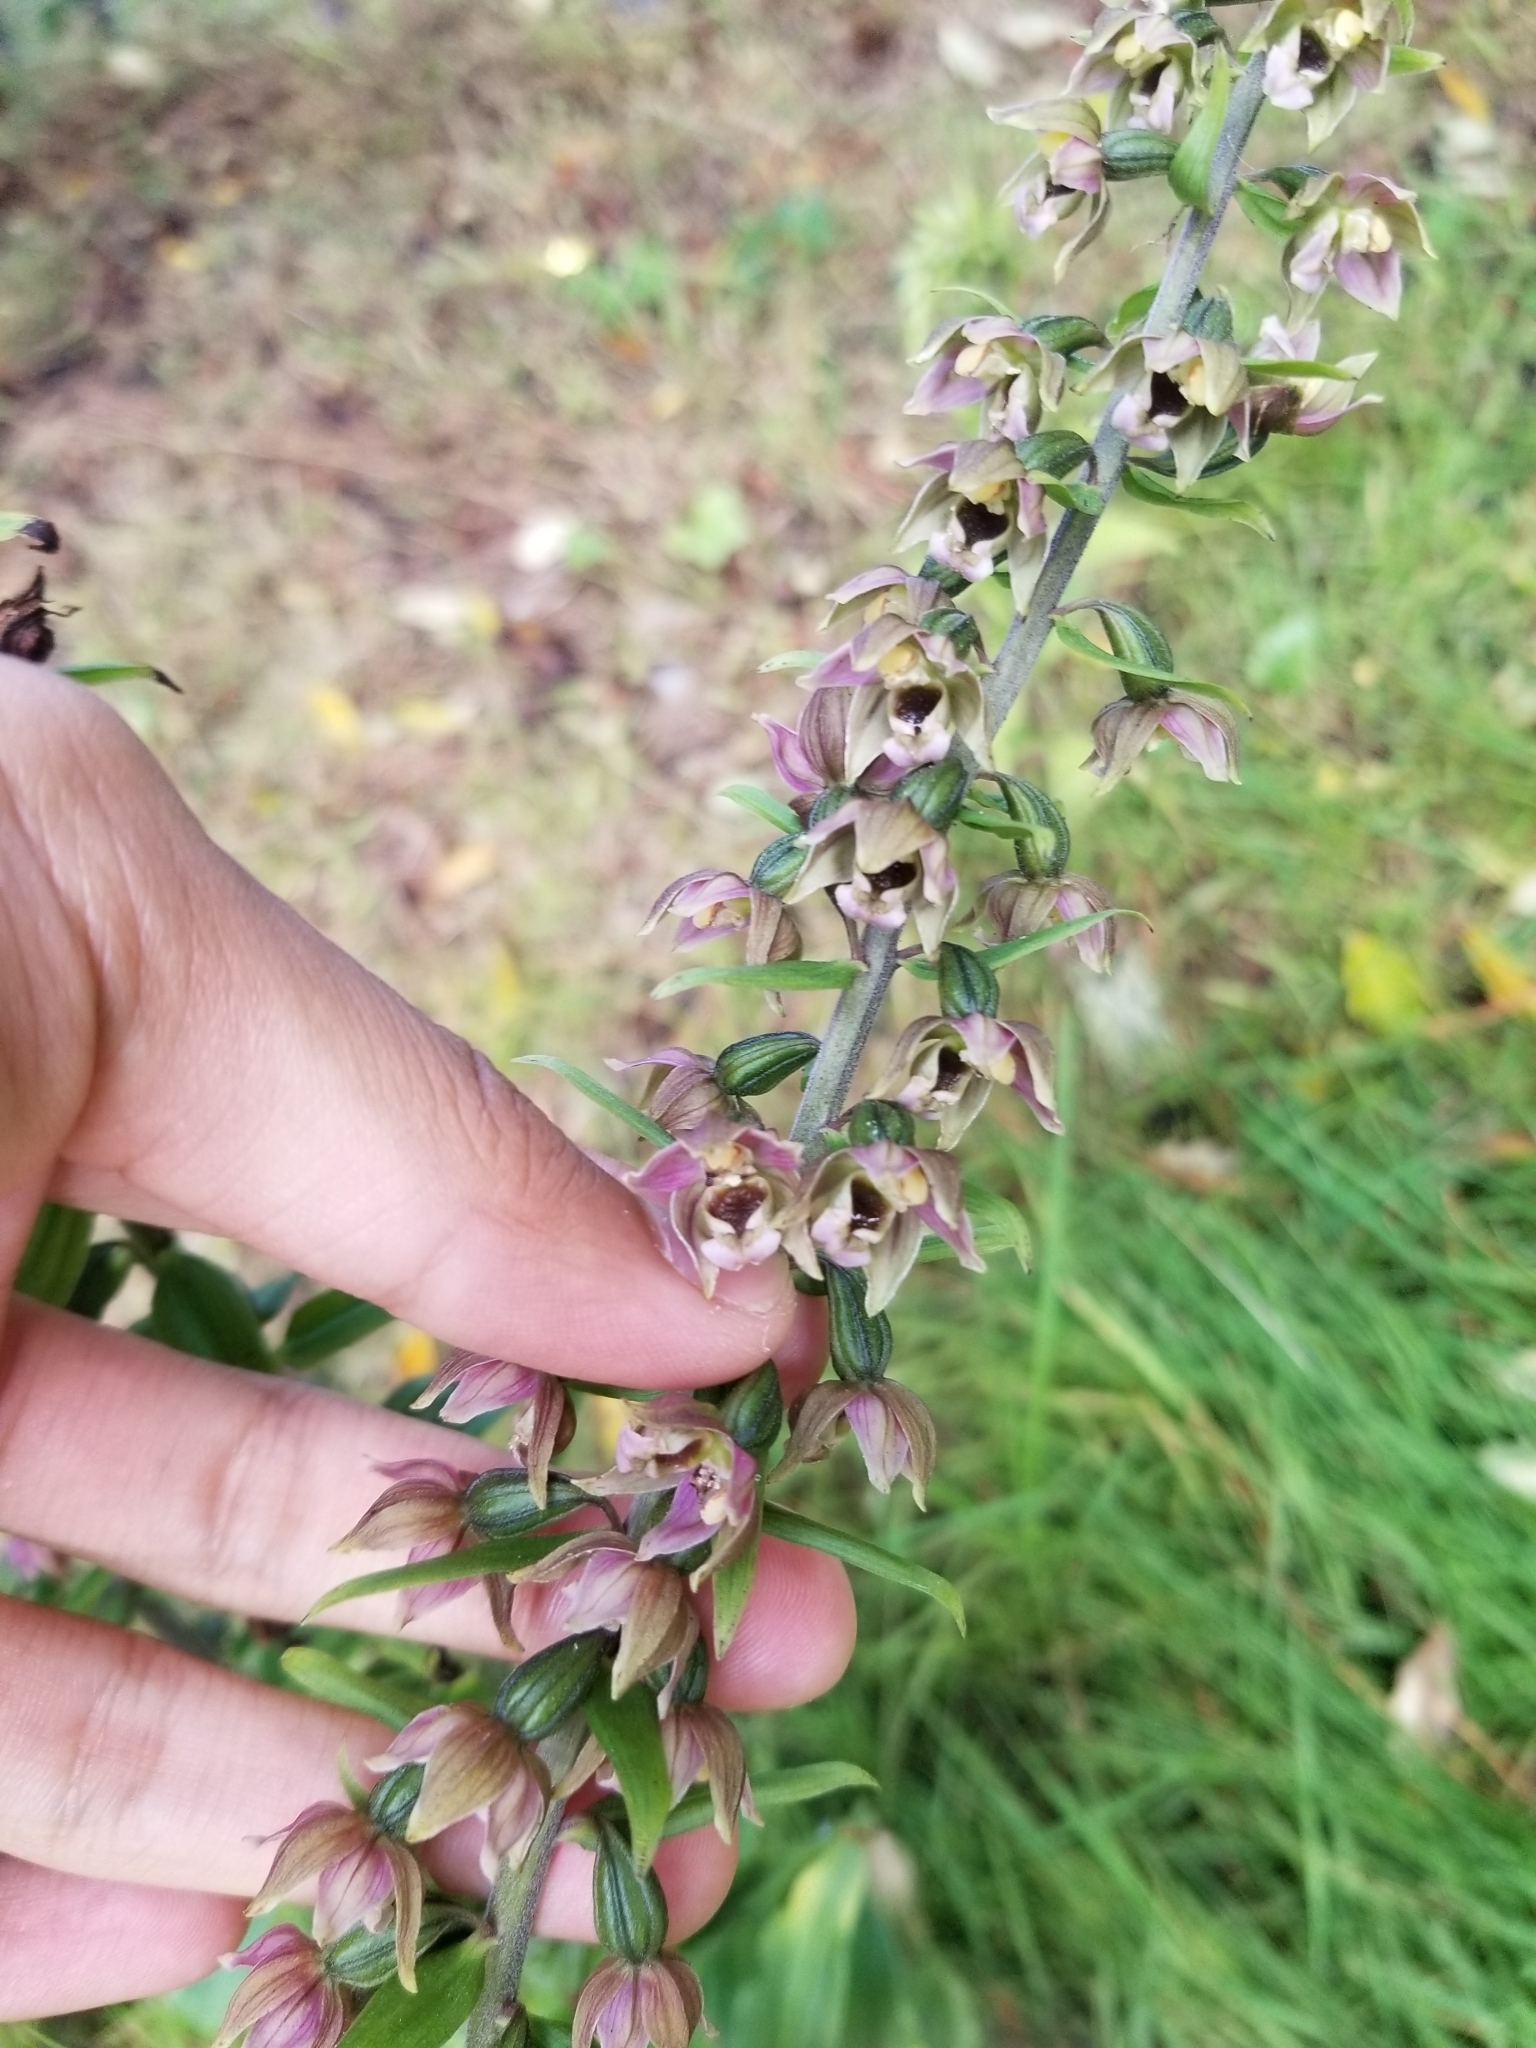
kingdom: Plantae
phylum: Tracheophyta
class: Liliopsida
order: Asparagales
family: Orchidaceae
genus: Epipactis
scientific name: Epipactis helleborine
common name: Broad-leaved helleborine
